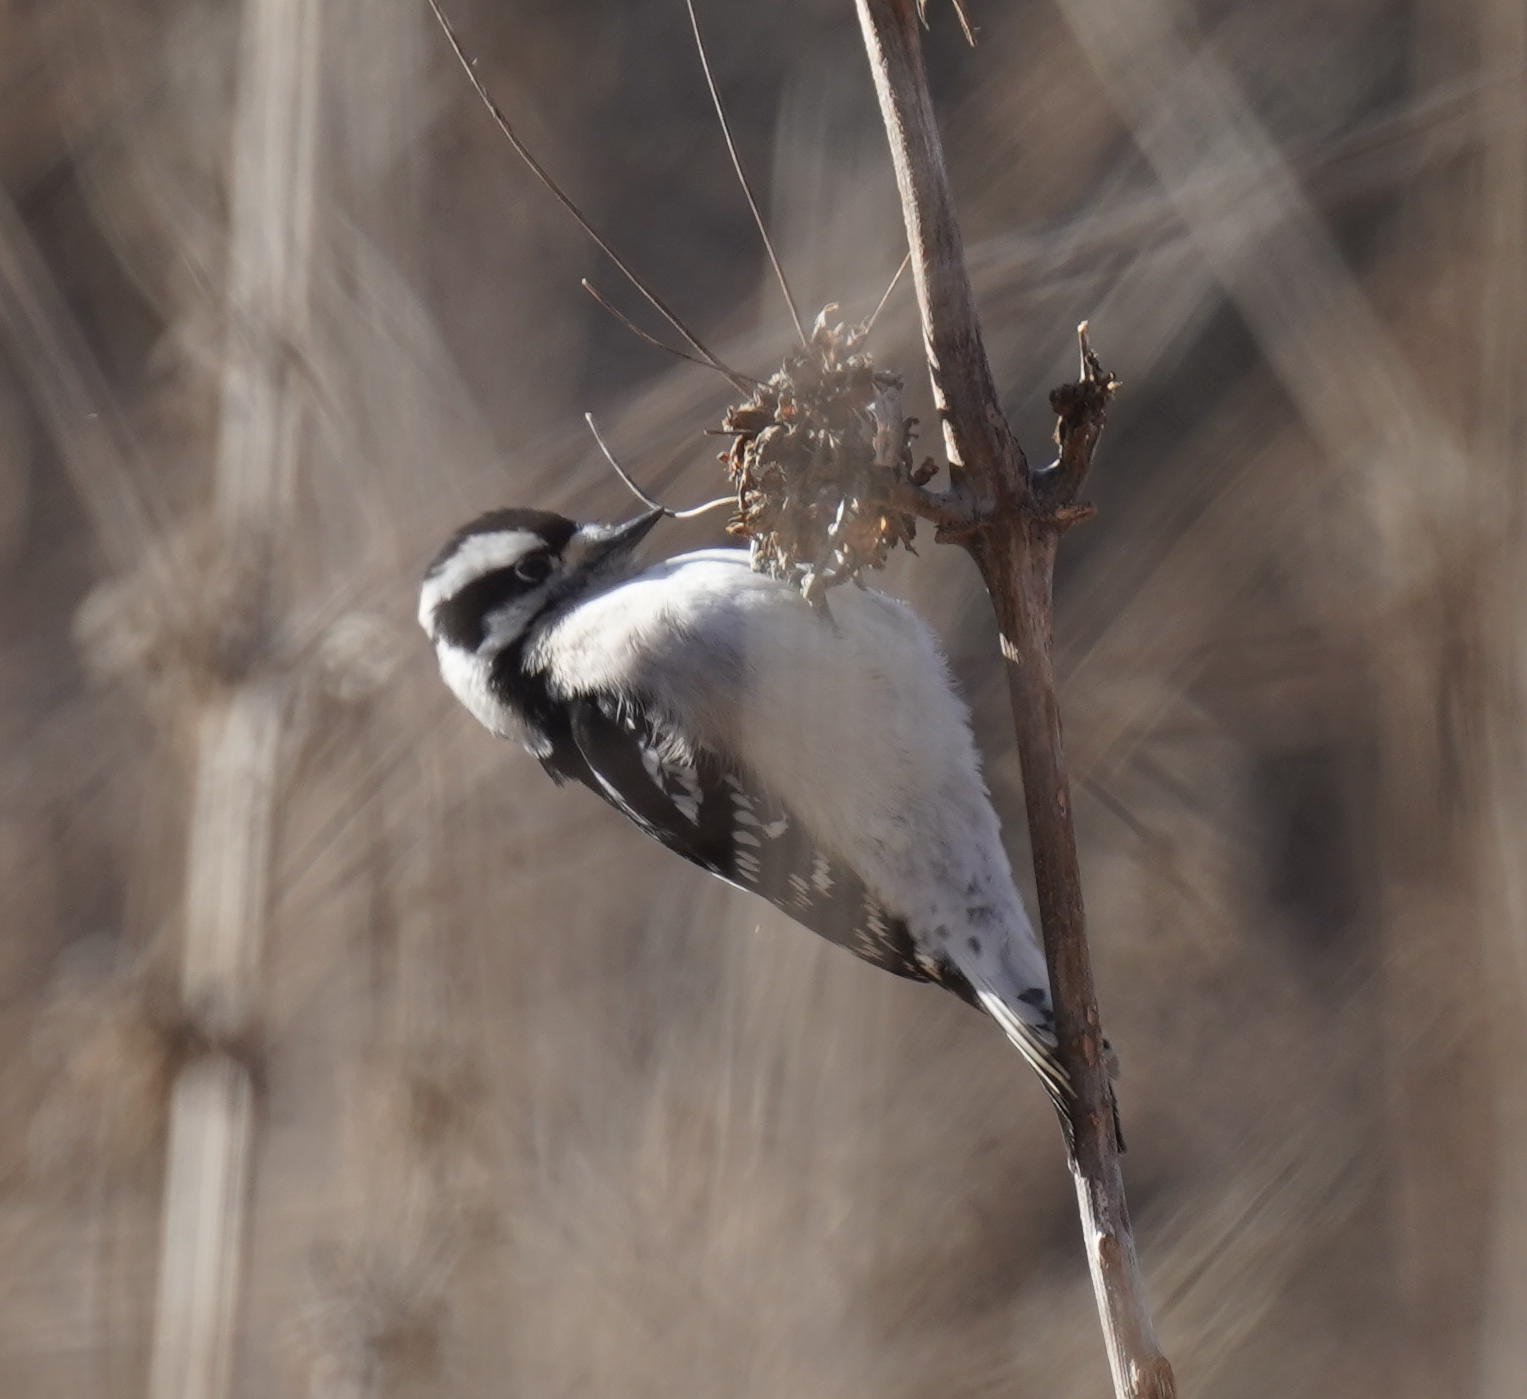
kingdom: Animalia
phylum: Chordata
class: Aves
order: Piciformes
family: Picidae
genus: Dryobates
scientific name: Dryobates pubescens
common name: Downy woodpecker
